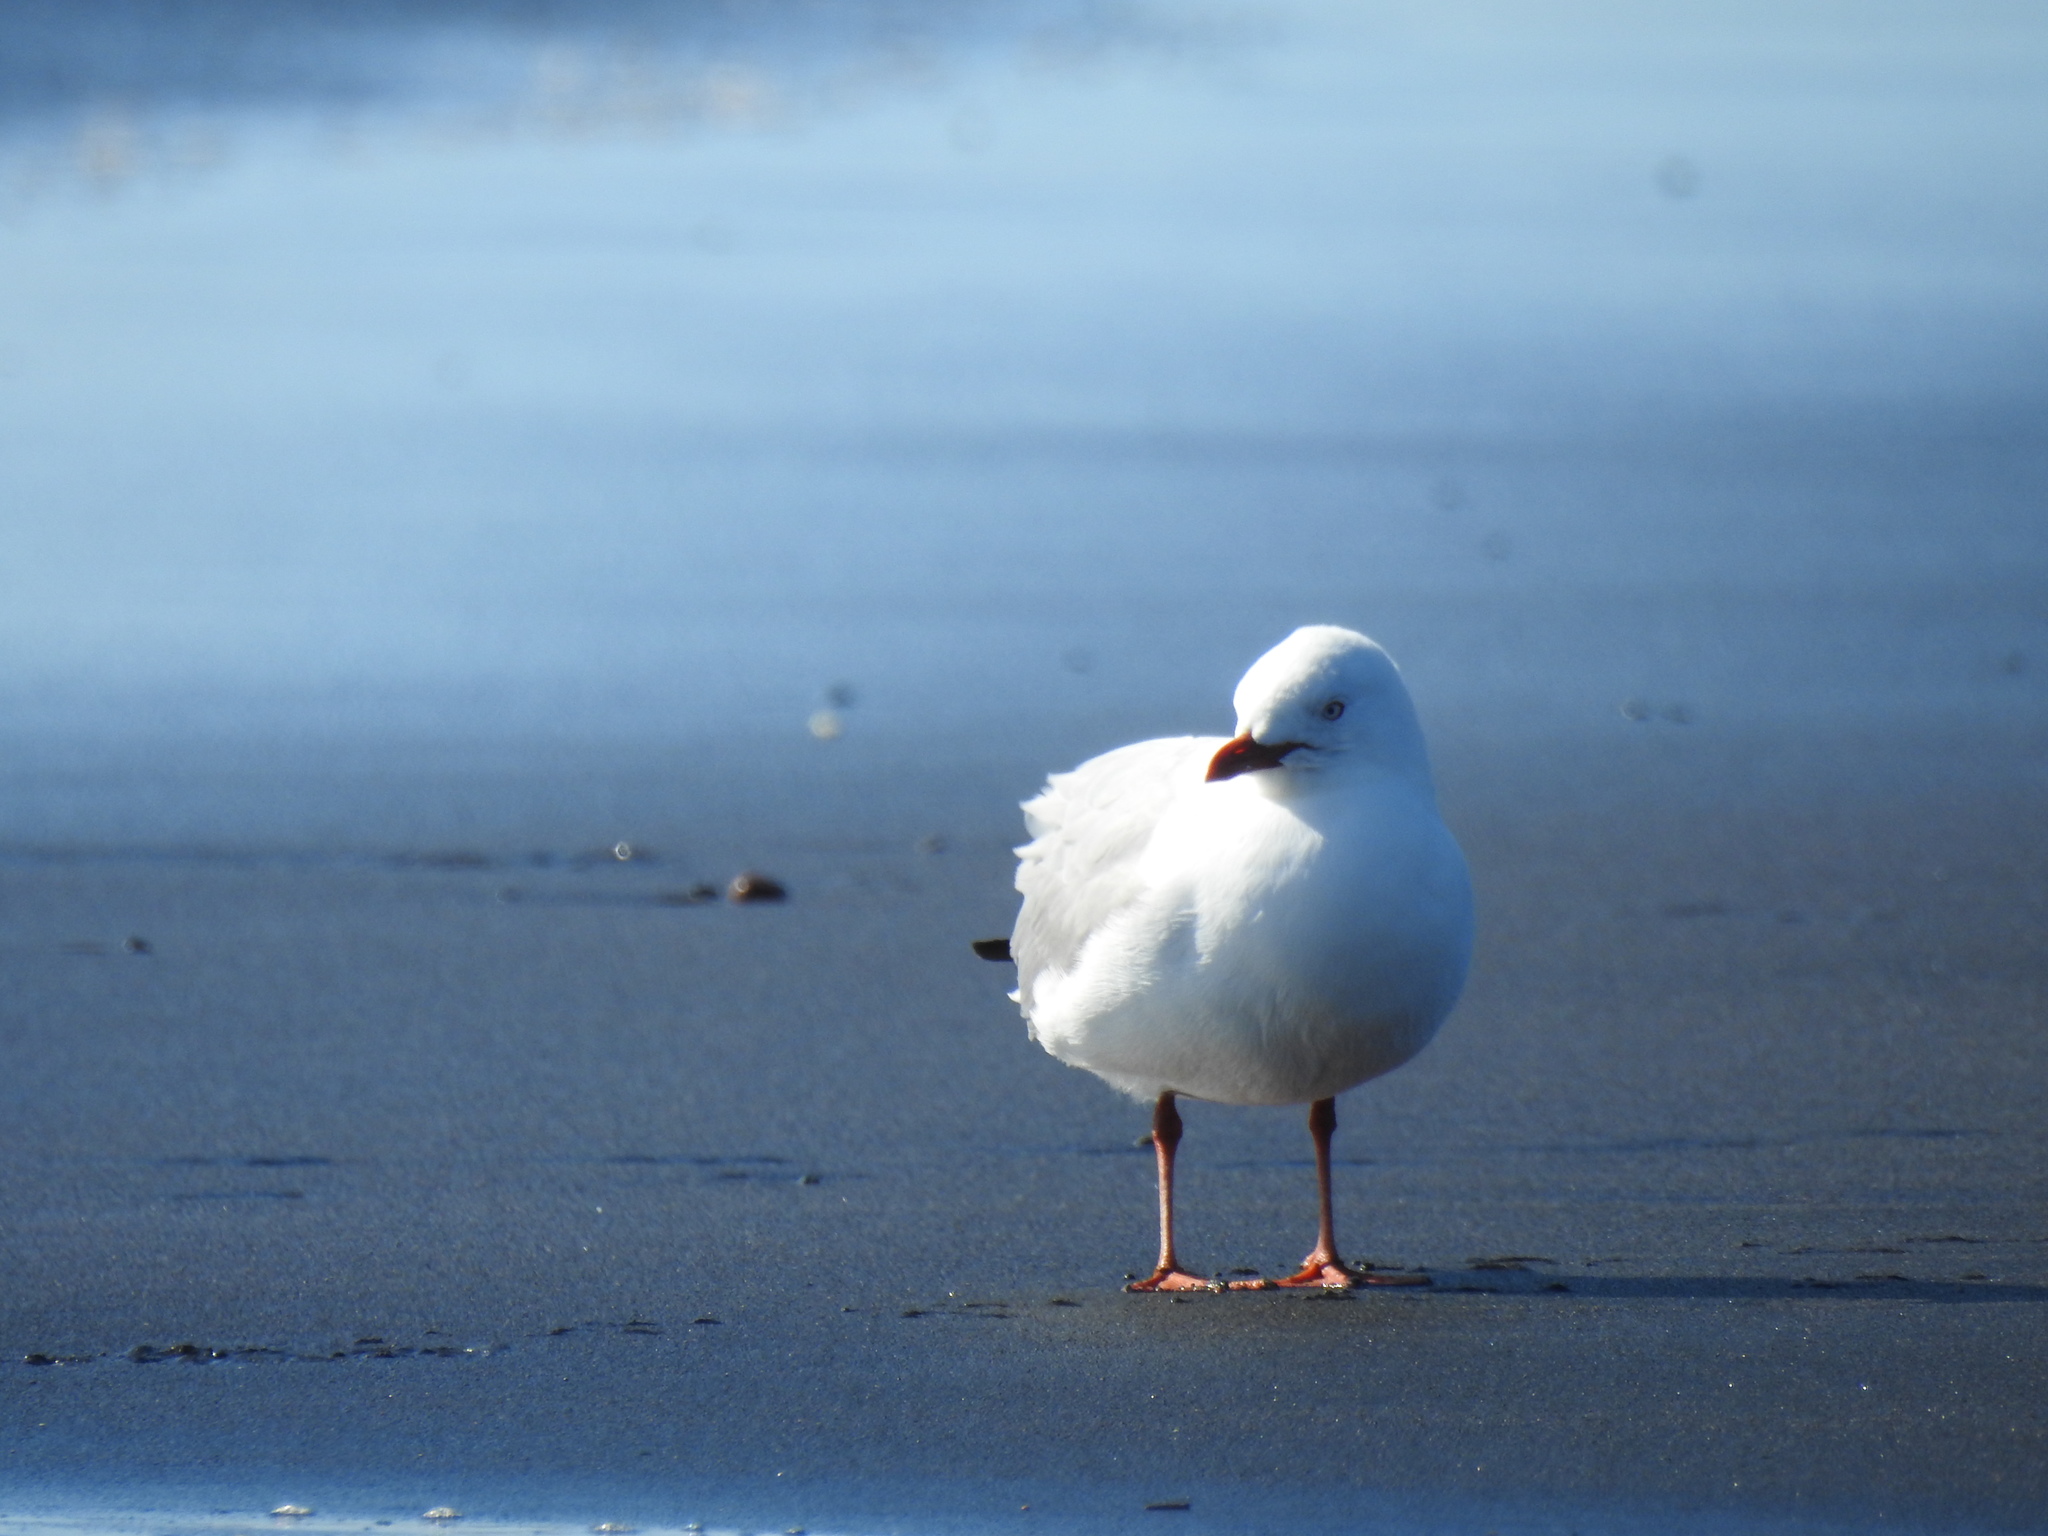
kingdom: Animalia
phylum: Chordata
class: Aves
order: Charadriiformes
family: Laridae
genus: Chroicocephalus
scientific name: Chroicocephalus novaehollandiae
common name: Silver gull
